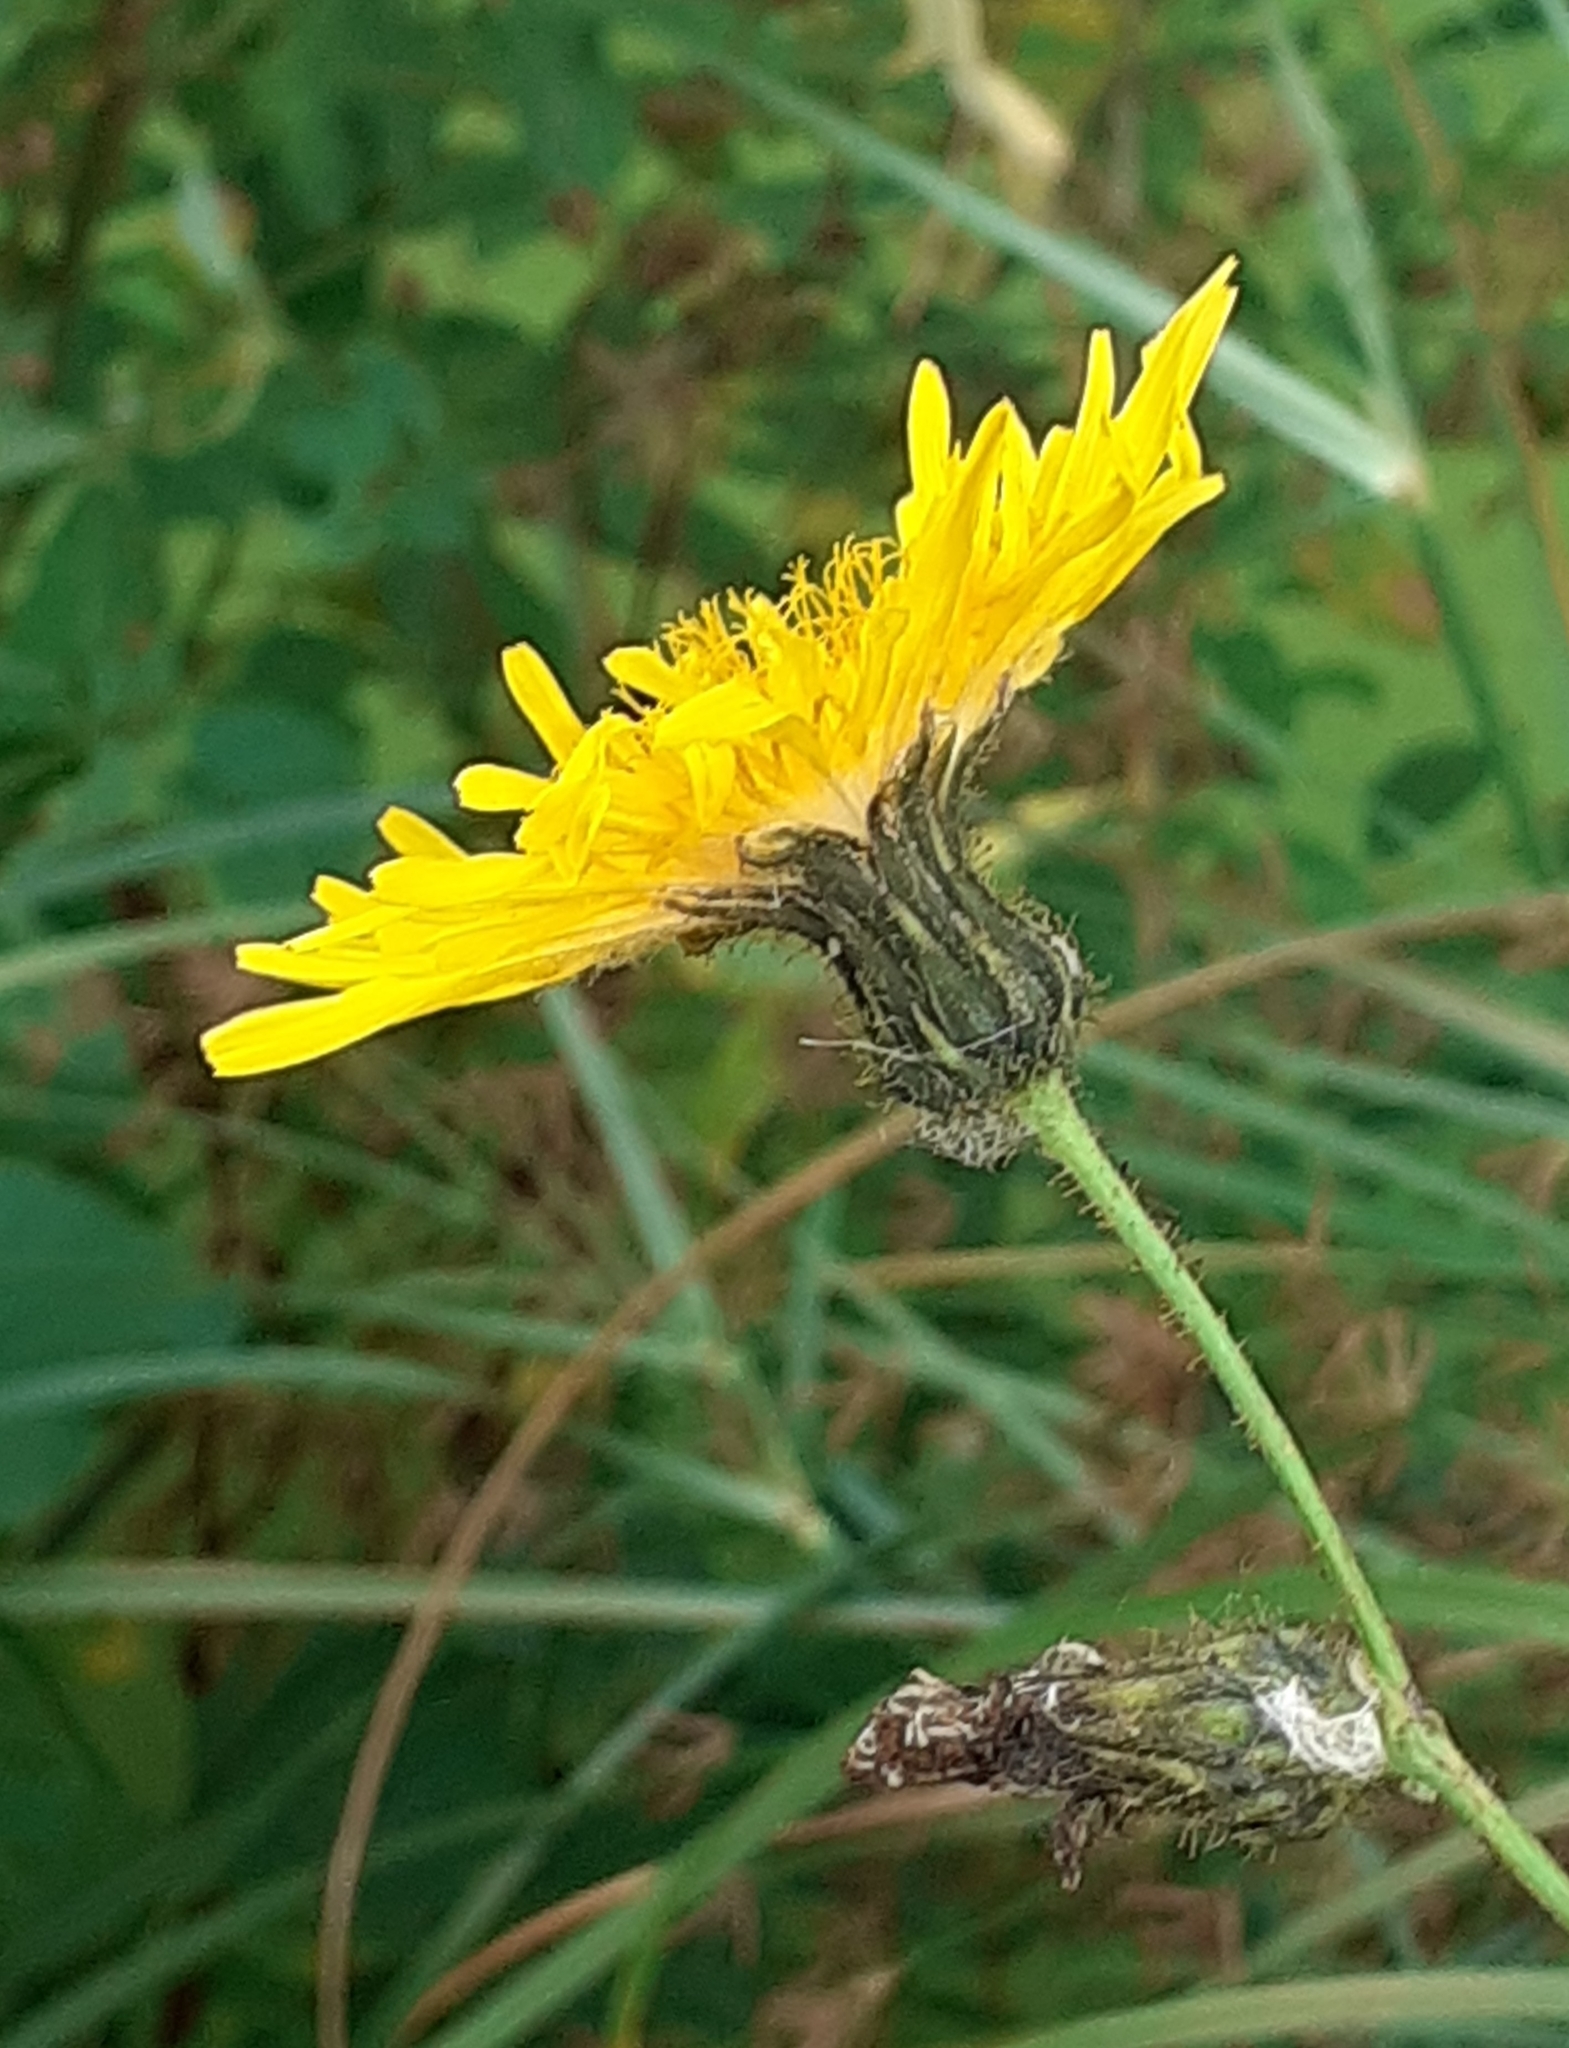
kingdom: Plantae
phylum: Tracheophyta
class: Magnoliopsida
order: Asterales
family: Asteraceae
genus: Sonchus
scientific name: Sonchus arvensis
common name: Perennial sow-thistle
